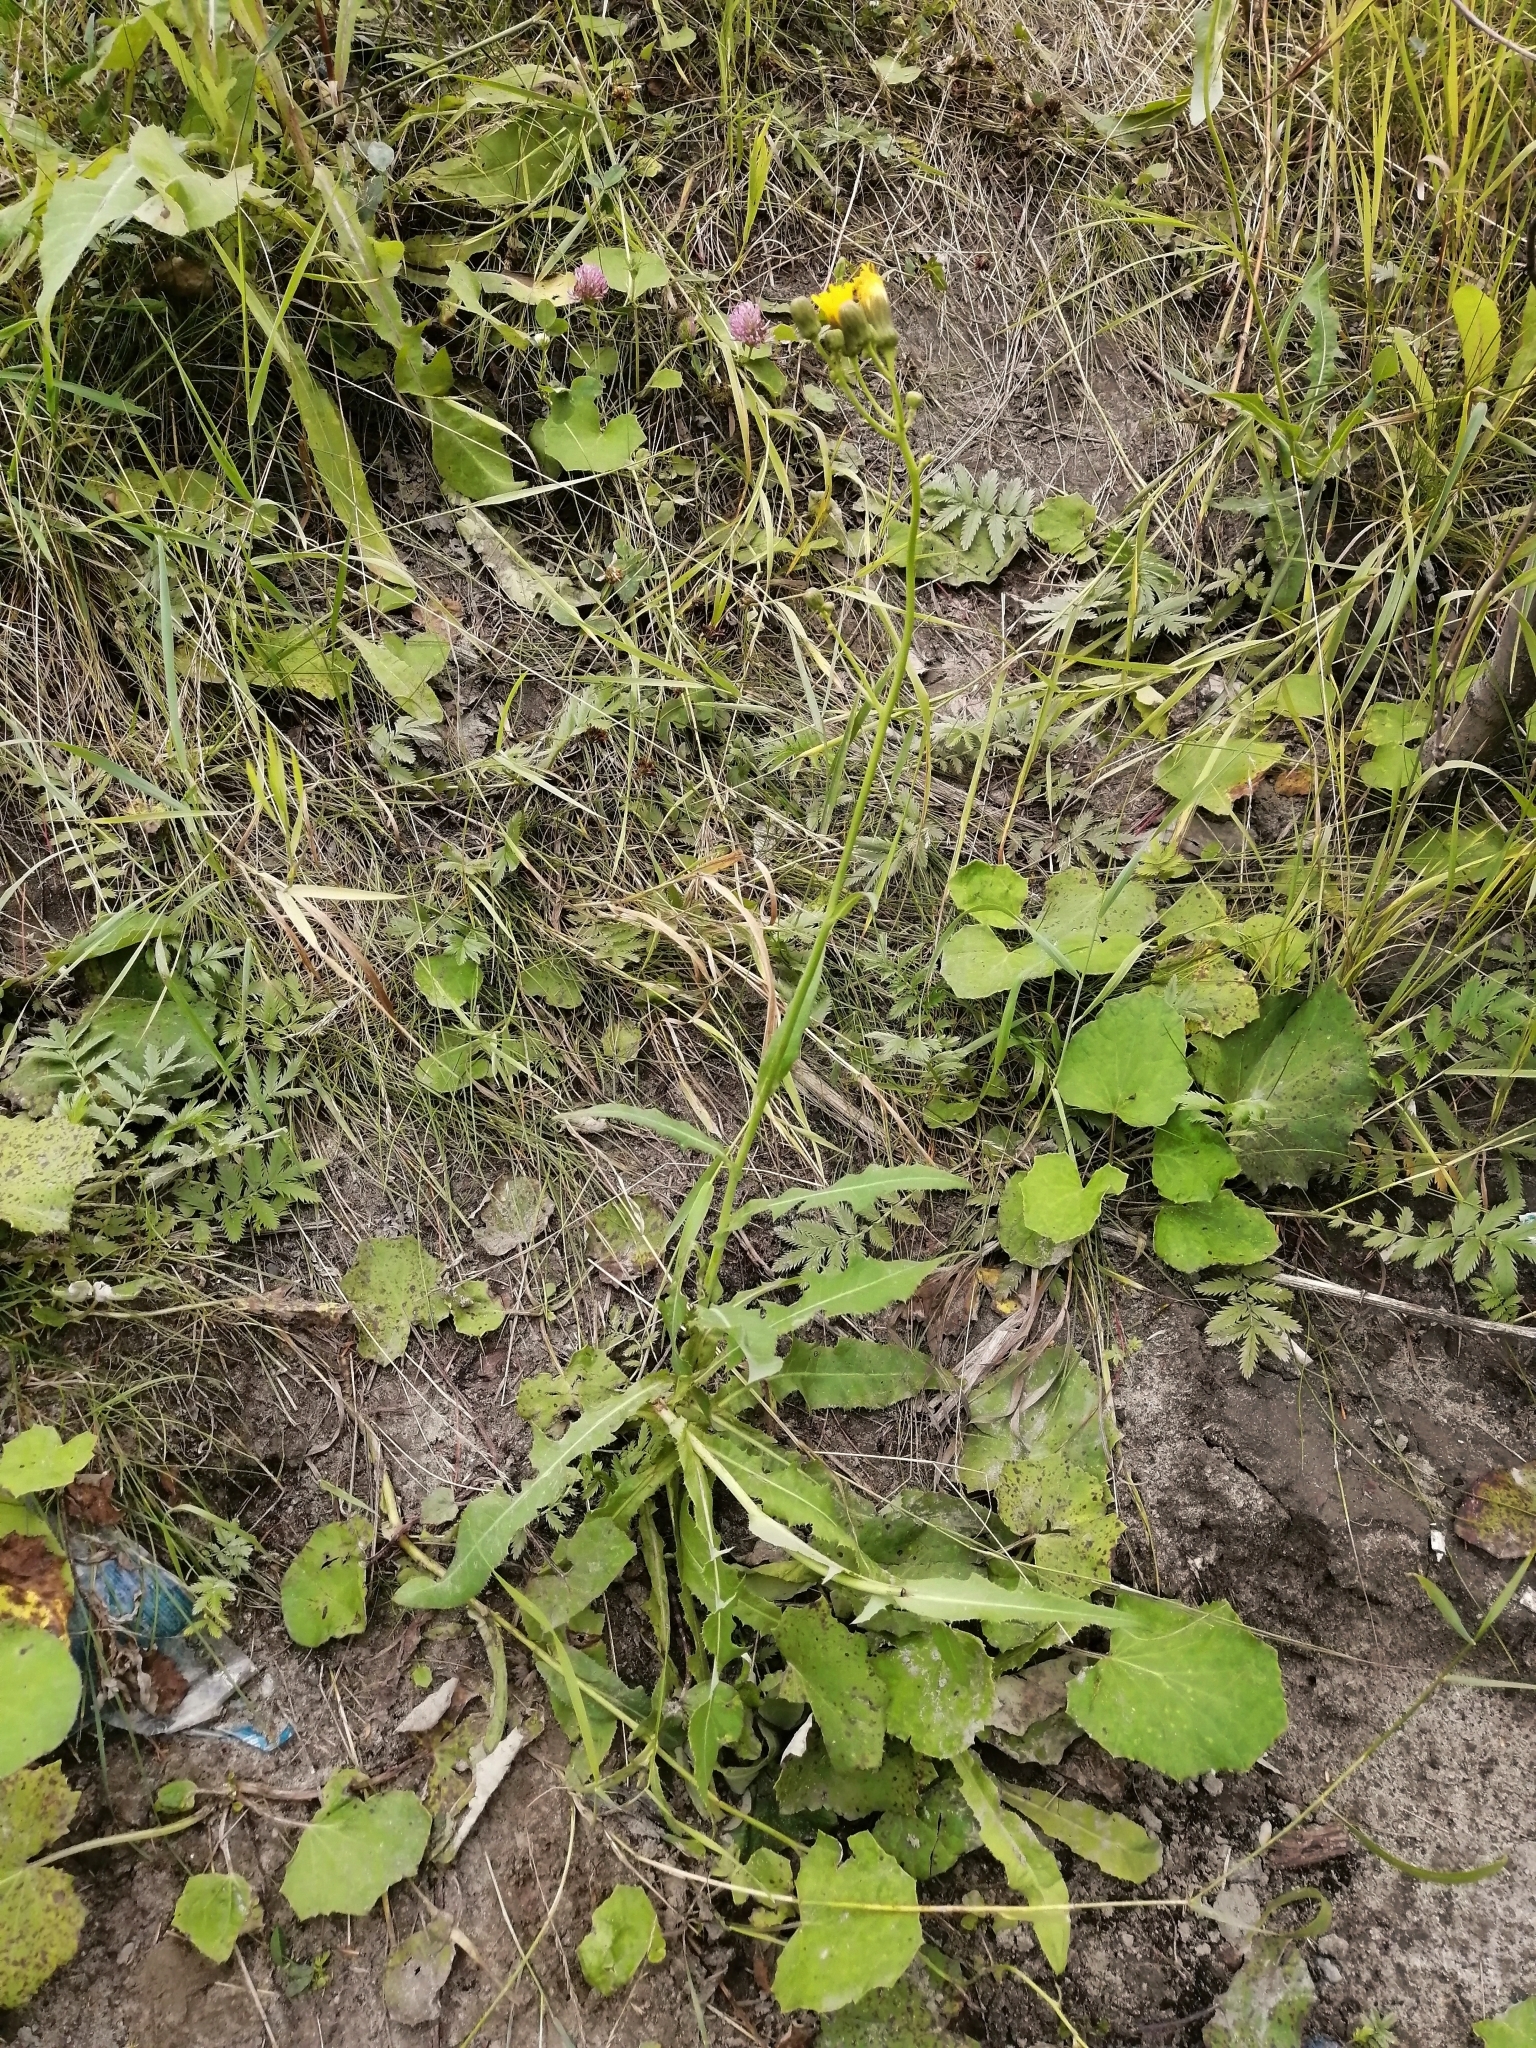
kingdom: Plantae
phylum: Tracheophyta
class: Magnoliopsida
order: Asterales
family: Asteraceae
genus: Sonchus
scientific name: Sonchus arvensis
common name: Perennial sow-thistle
